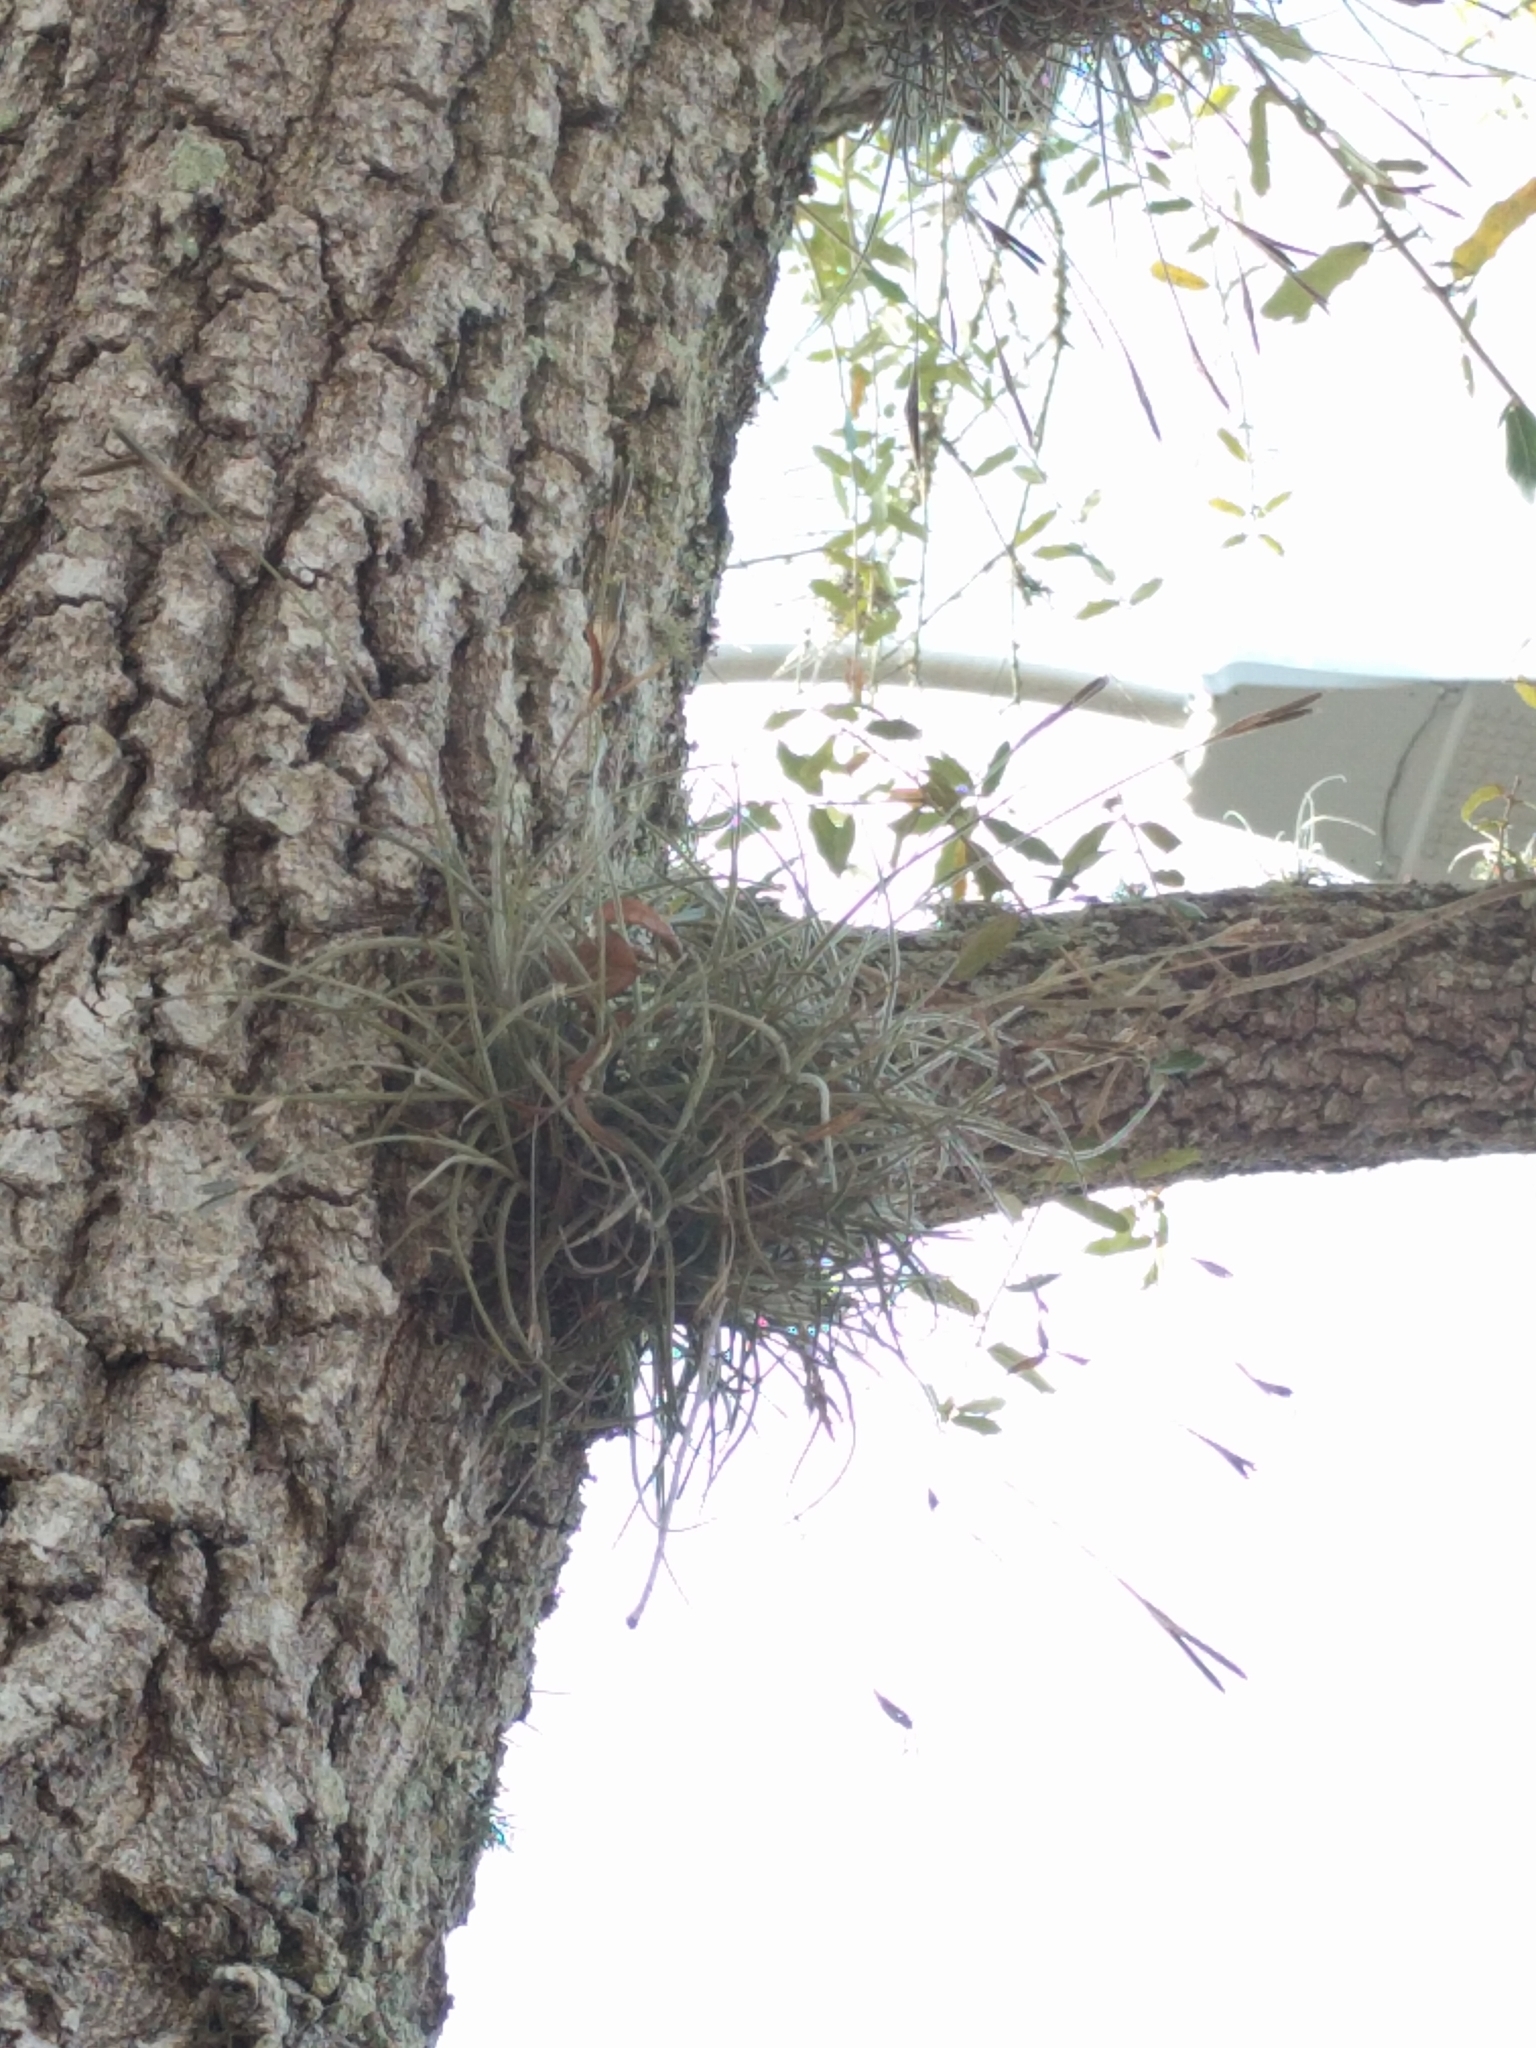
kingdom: Plantae
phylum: Tracheophyta
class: Liliopsida
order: Poales
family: Bromeliaceae
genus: Tillandsia
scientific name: Tillandsia recurvata
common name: Small ballmoss
